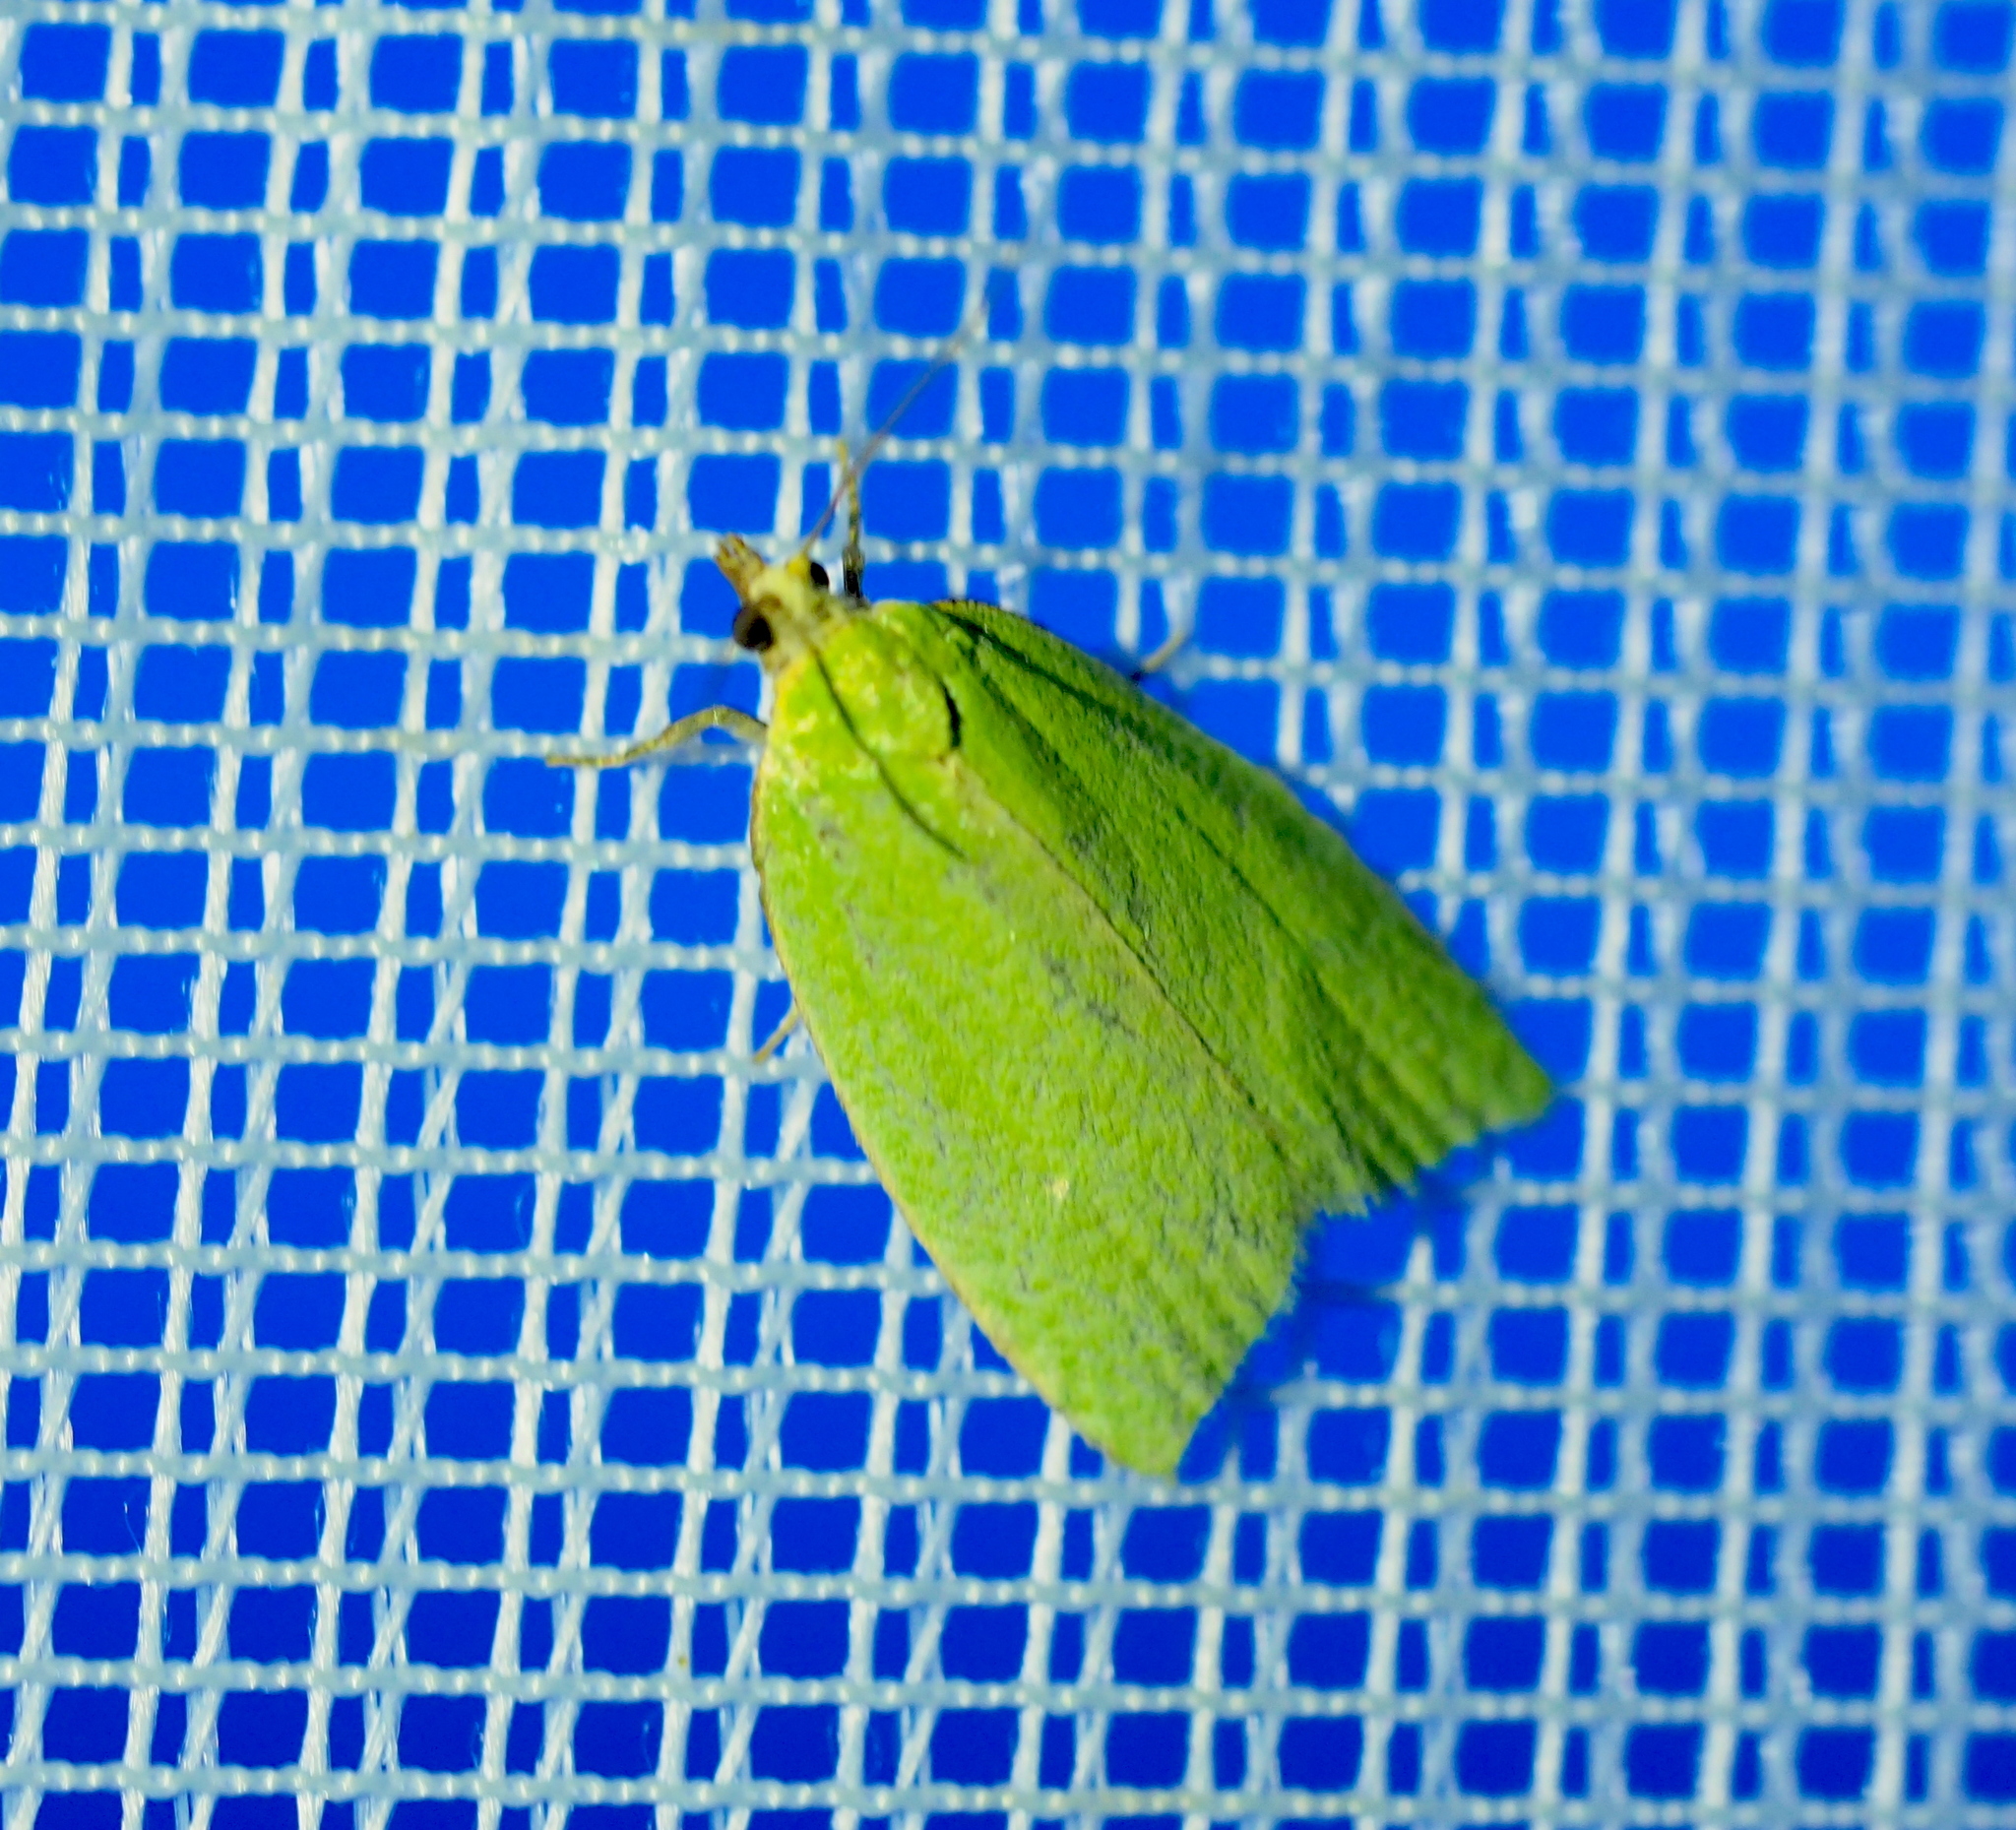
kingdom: Animalia
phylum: Arthropoda
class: Insecta
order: Lepidoptera
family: Tortricidae
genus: Tortrix
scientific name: Tortrix viridana
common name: Green oak tortrix
